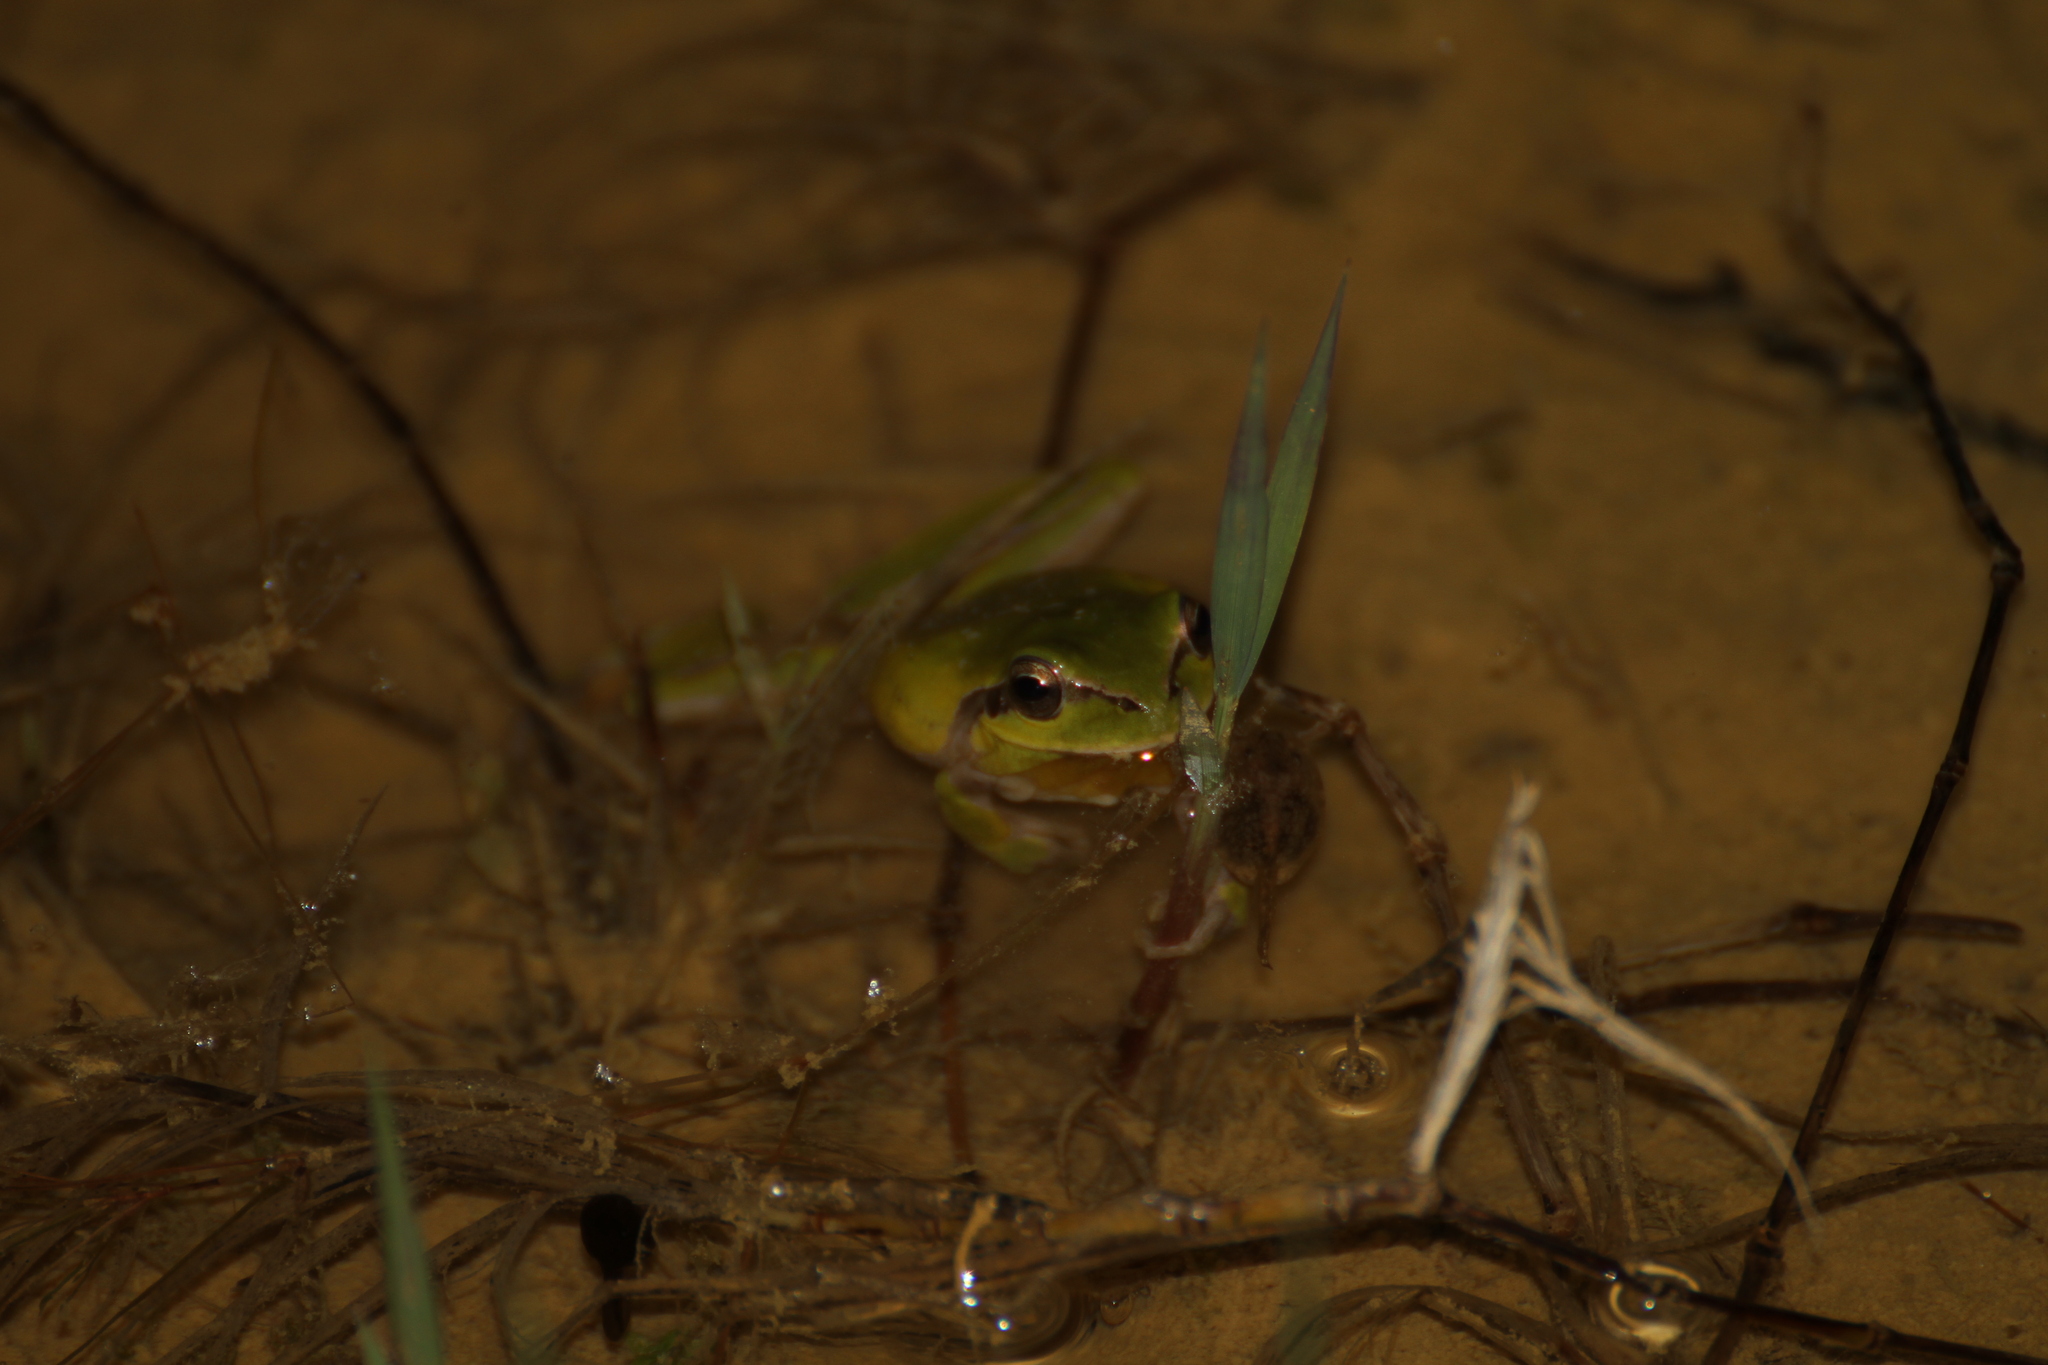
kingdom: Animalia
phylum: Chordata
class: Amphibia
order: Anura
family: Hylidae
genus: Hyla
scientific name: Hyla meridionalis
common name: Stripeless tree frog
